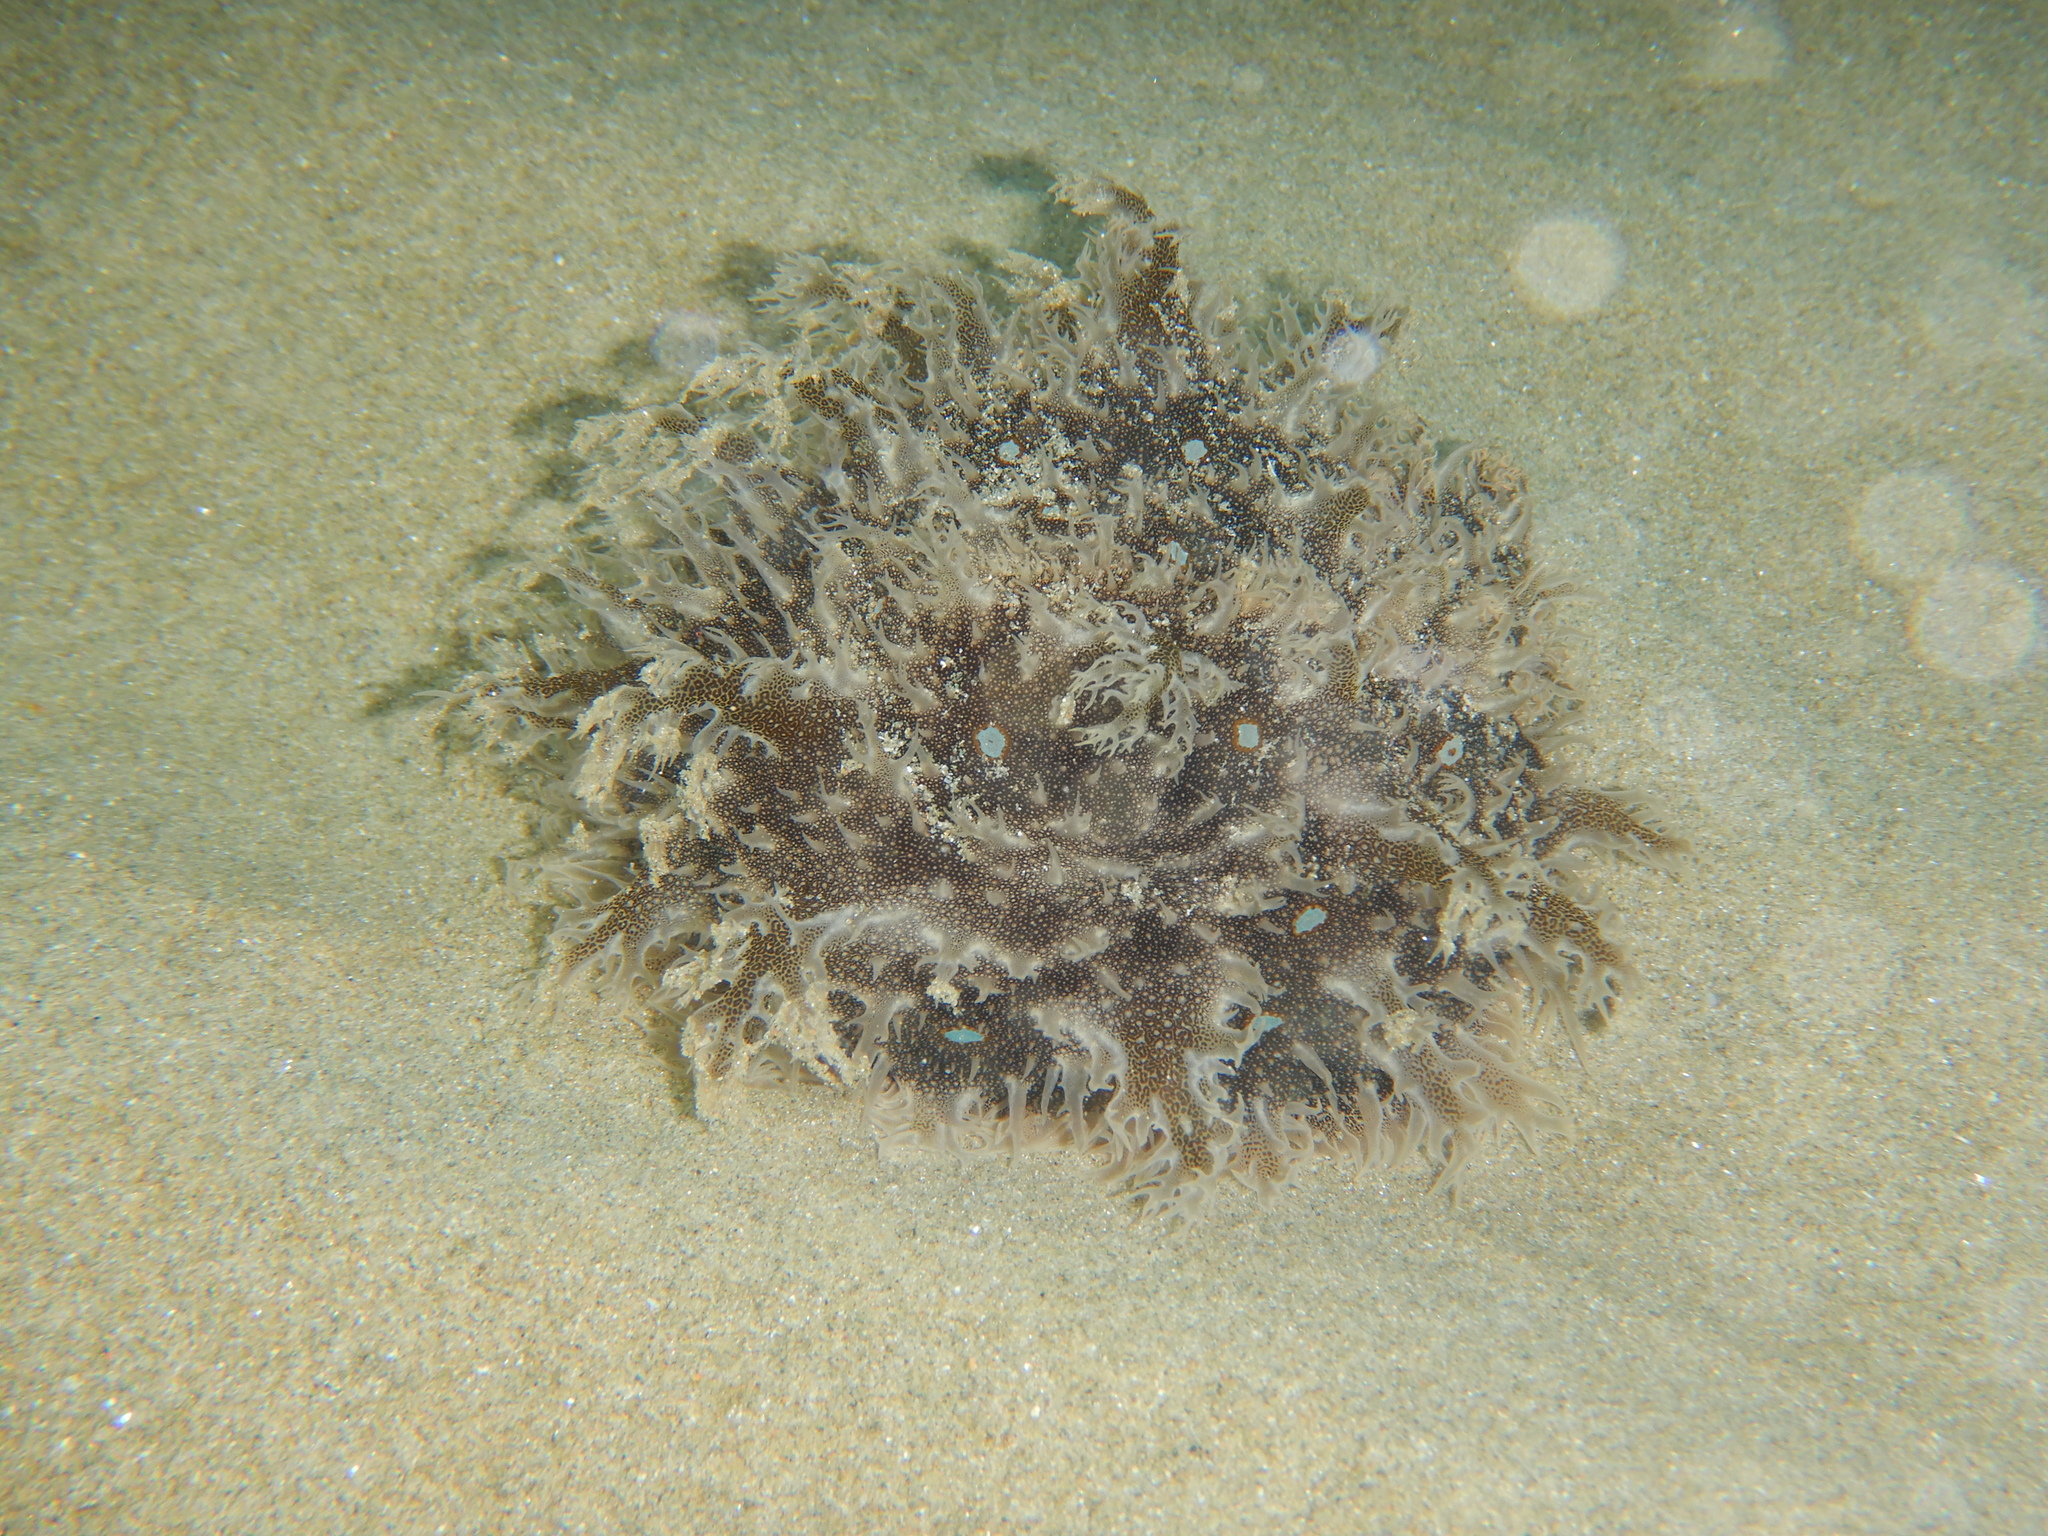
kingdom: Animalia
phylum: Mollusca
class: Gastropoda
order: Aplysiida
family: Aplysiidae
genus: Bursatella
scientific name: Bursatella leachii
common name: Shaggy sea hare
